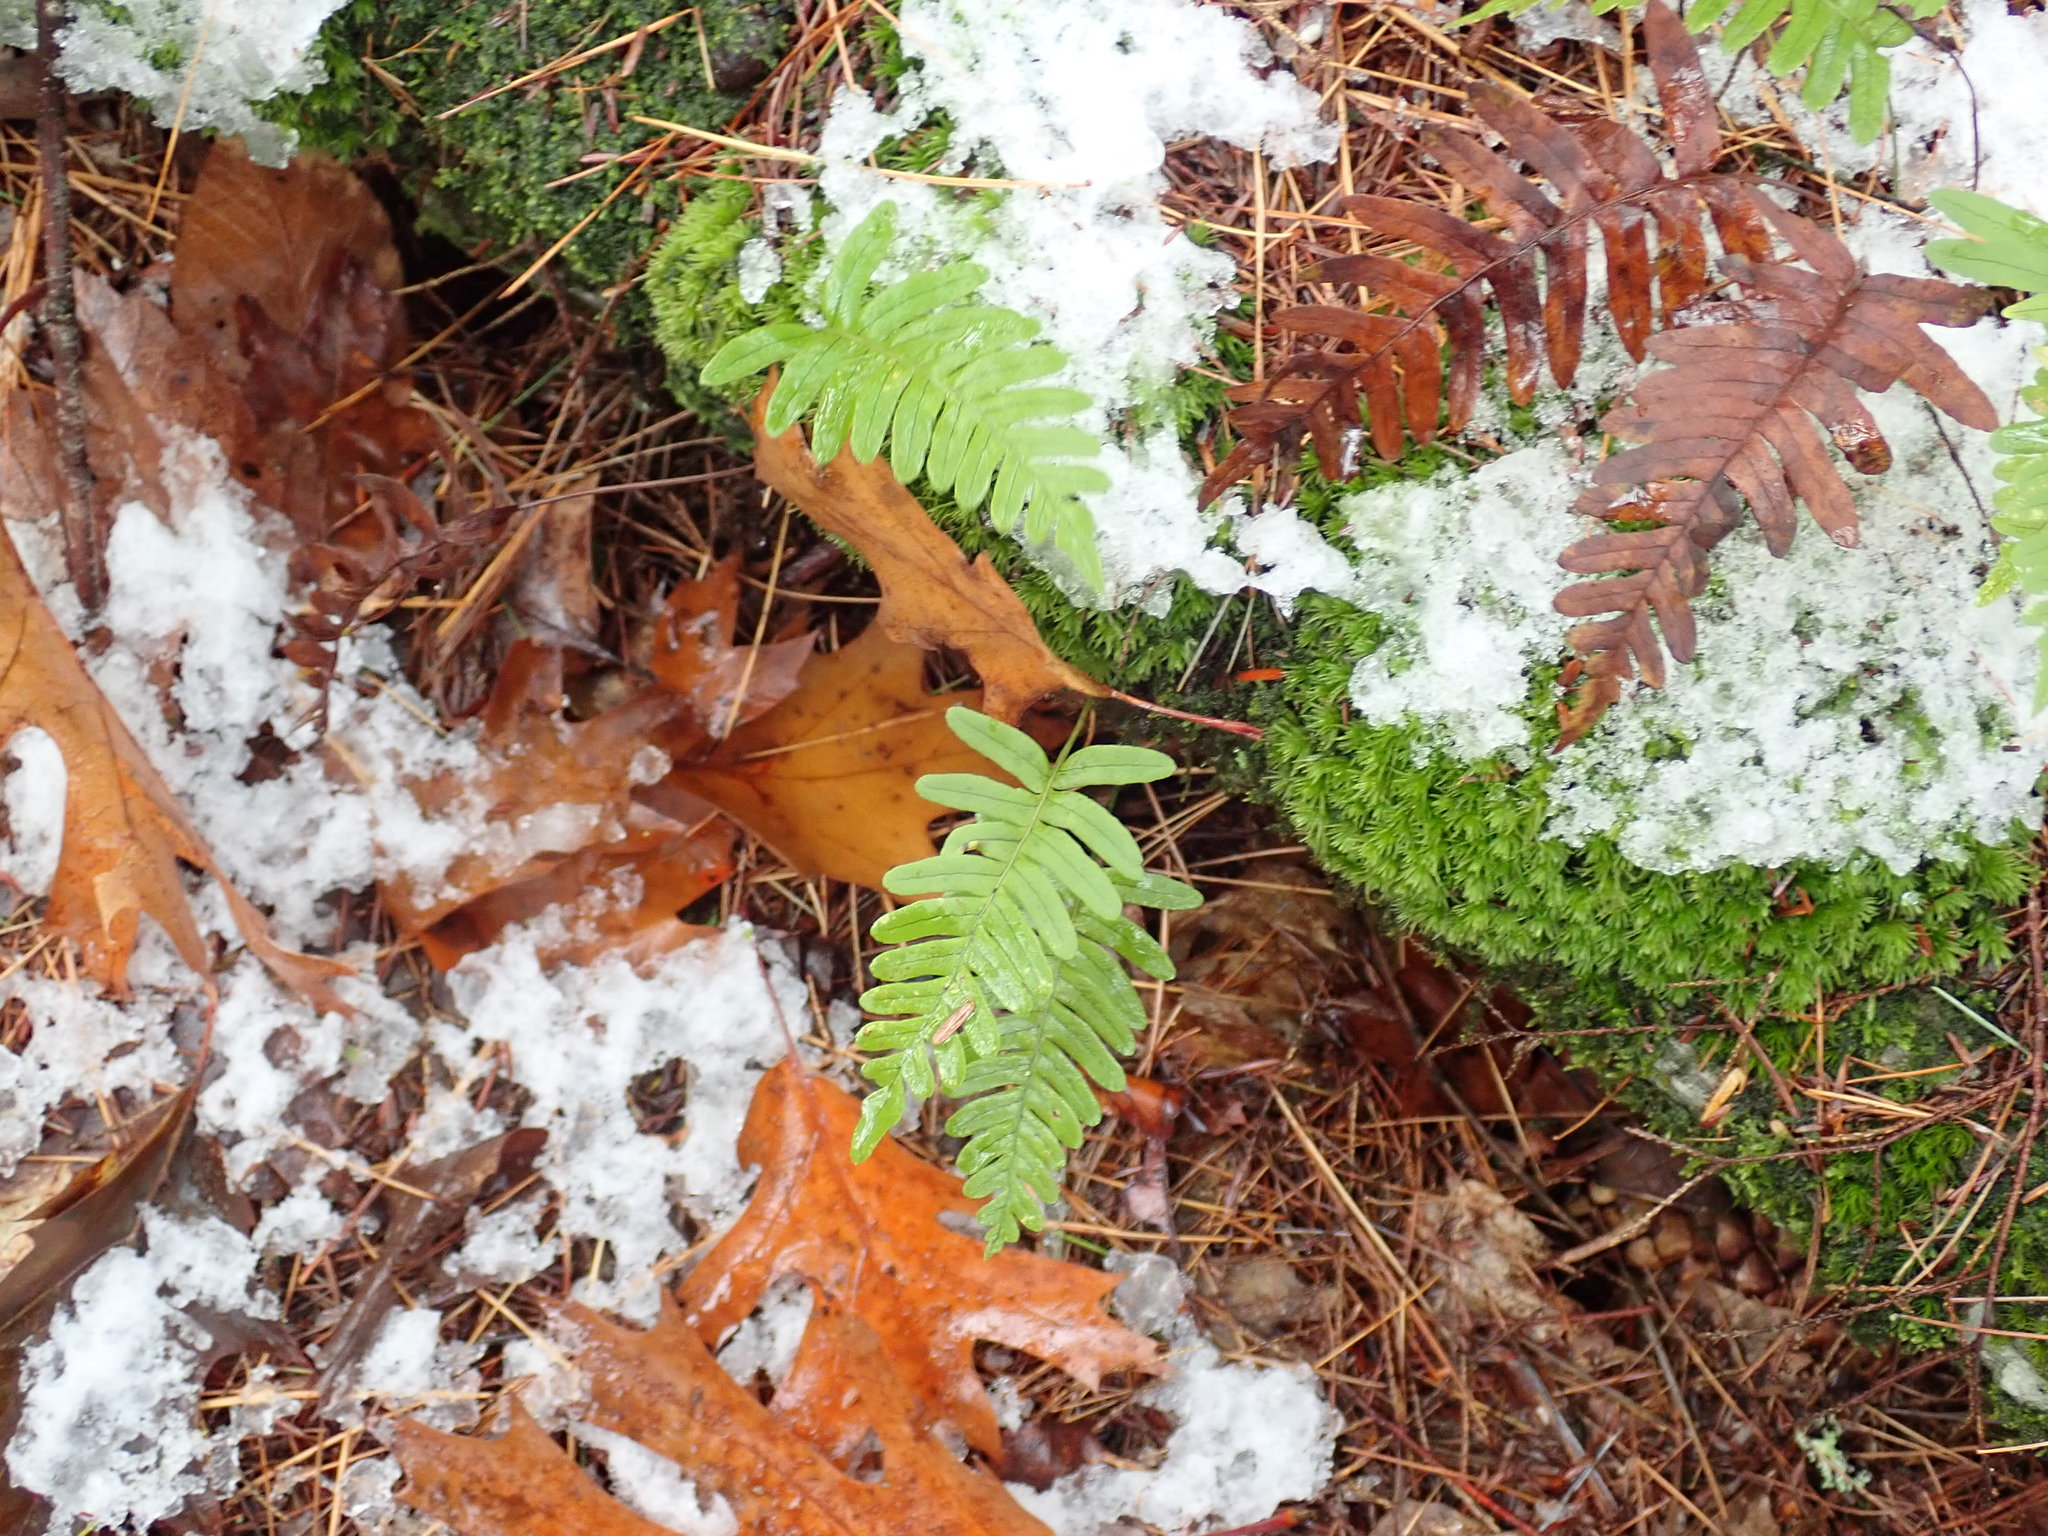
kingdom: Plantae
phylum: Tracheophyta
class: Polypodiopsida
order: Polypodiales
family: Polypodiaceae
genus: Polypodium
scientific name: Polypodium
